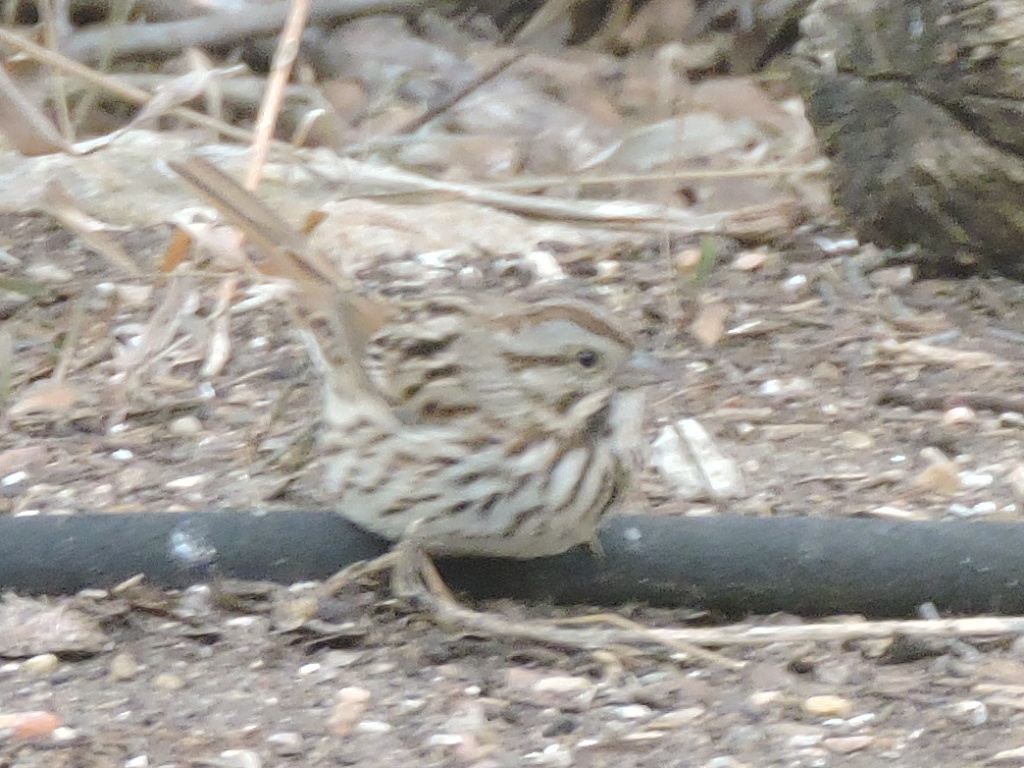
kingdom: Animalia
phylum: Chordata
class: Aves
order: Passeriformes
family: Passerellidae
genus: Melospiza
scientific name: Melospiza melodia
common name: Song sparrow
